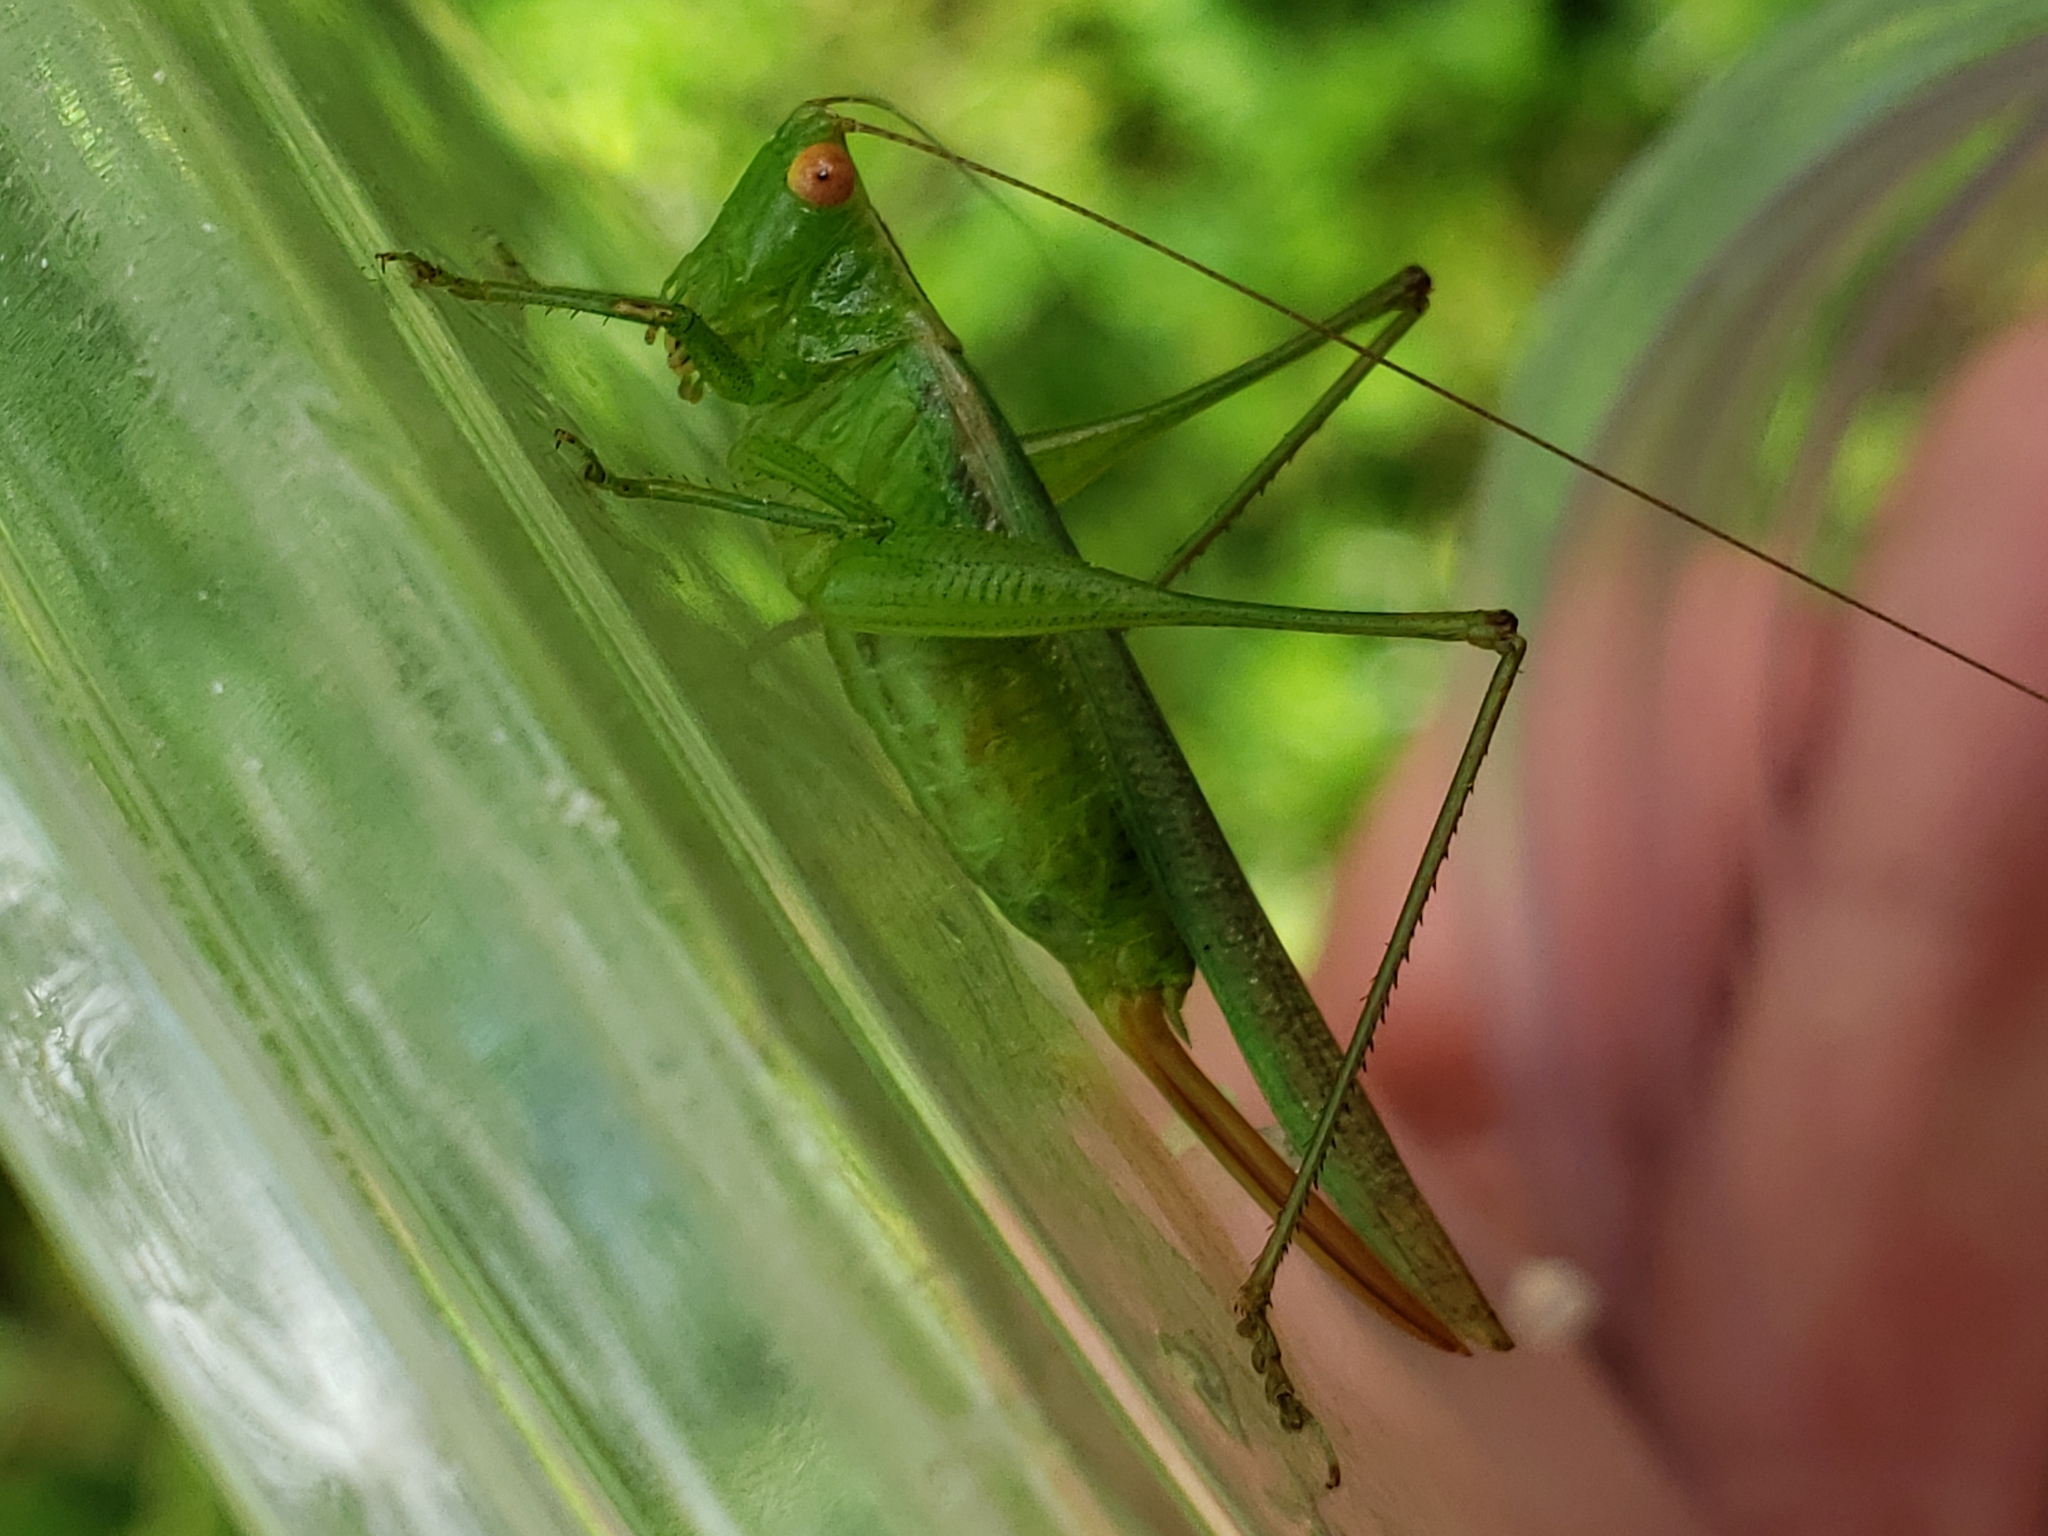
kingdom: Animalia
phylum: Arthropoda
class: Insecta
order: Orthoptera
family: Tettigoniidae
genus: Conocephalus
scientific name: Conocephalus cinereus
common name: Caribbean meadow katydid
